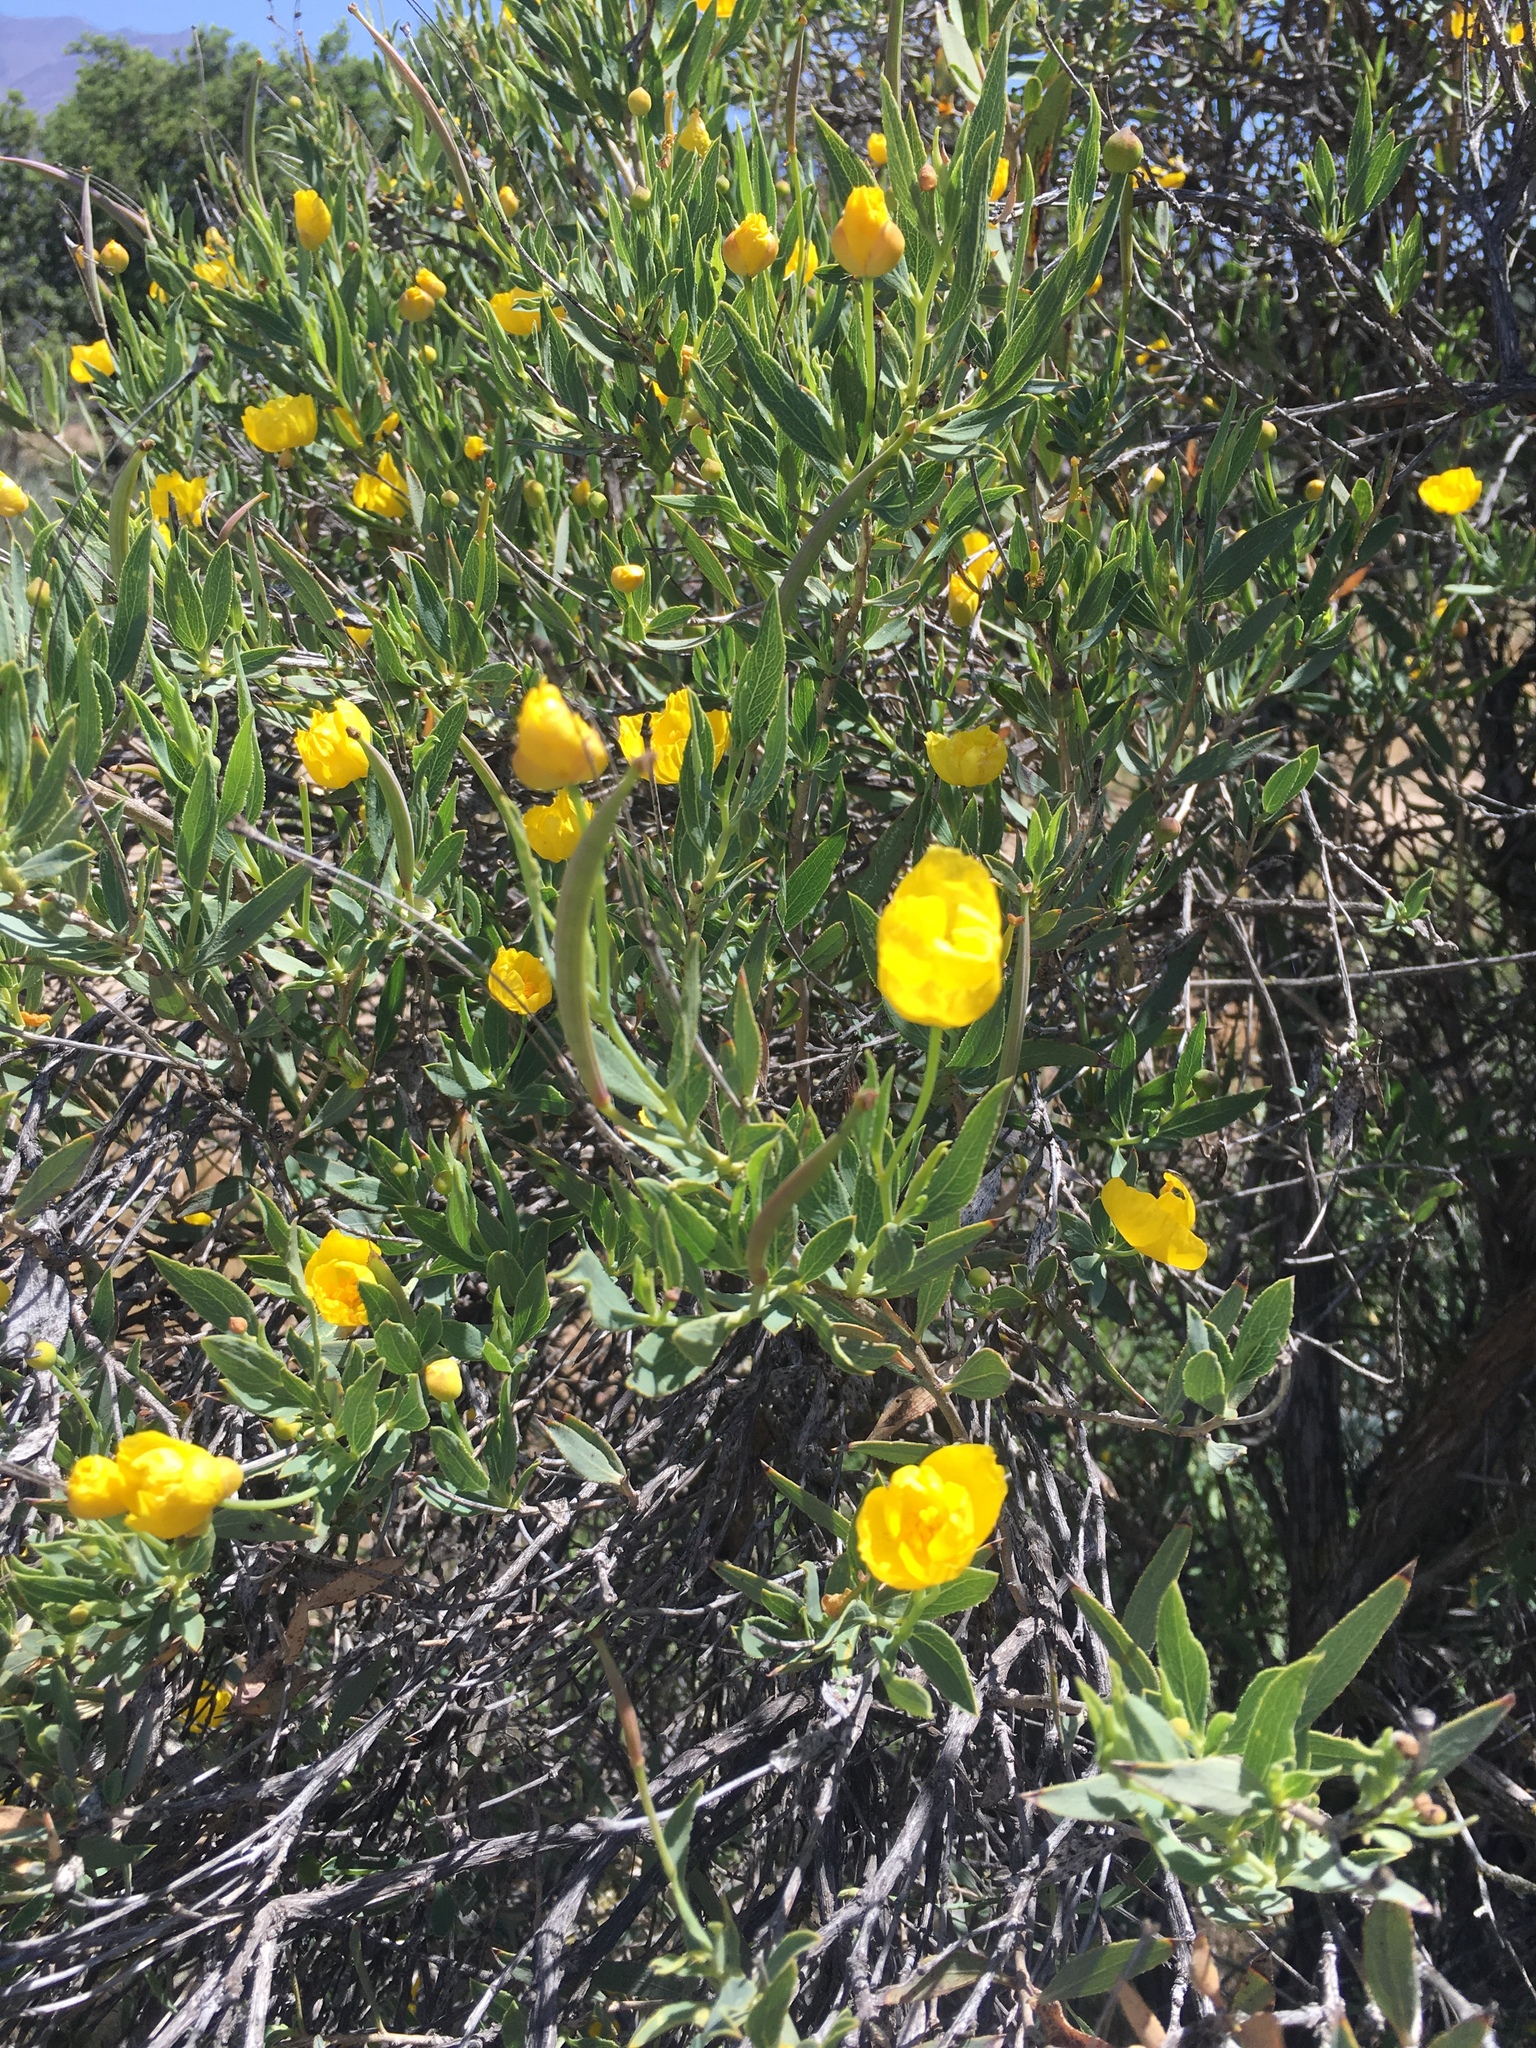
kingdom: Plantae
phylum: Tracheophyta
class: Magnoliopsida
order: Ranunculales
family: Papaveraceae
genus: Dendromecon
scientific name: Dendromecon rigida
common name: Tree poppy
